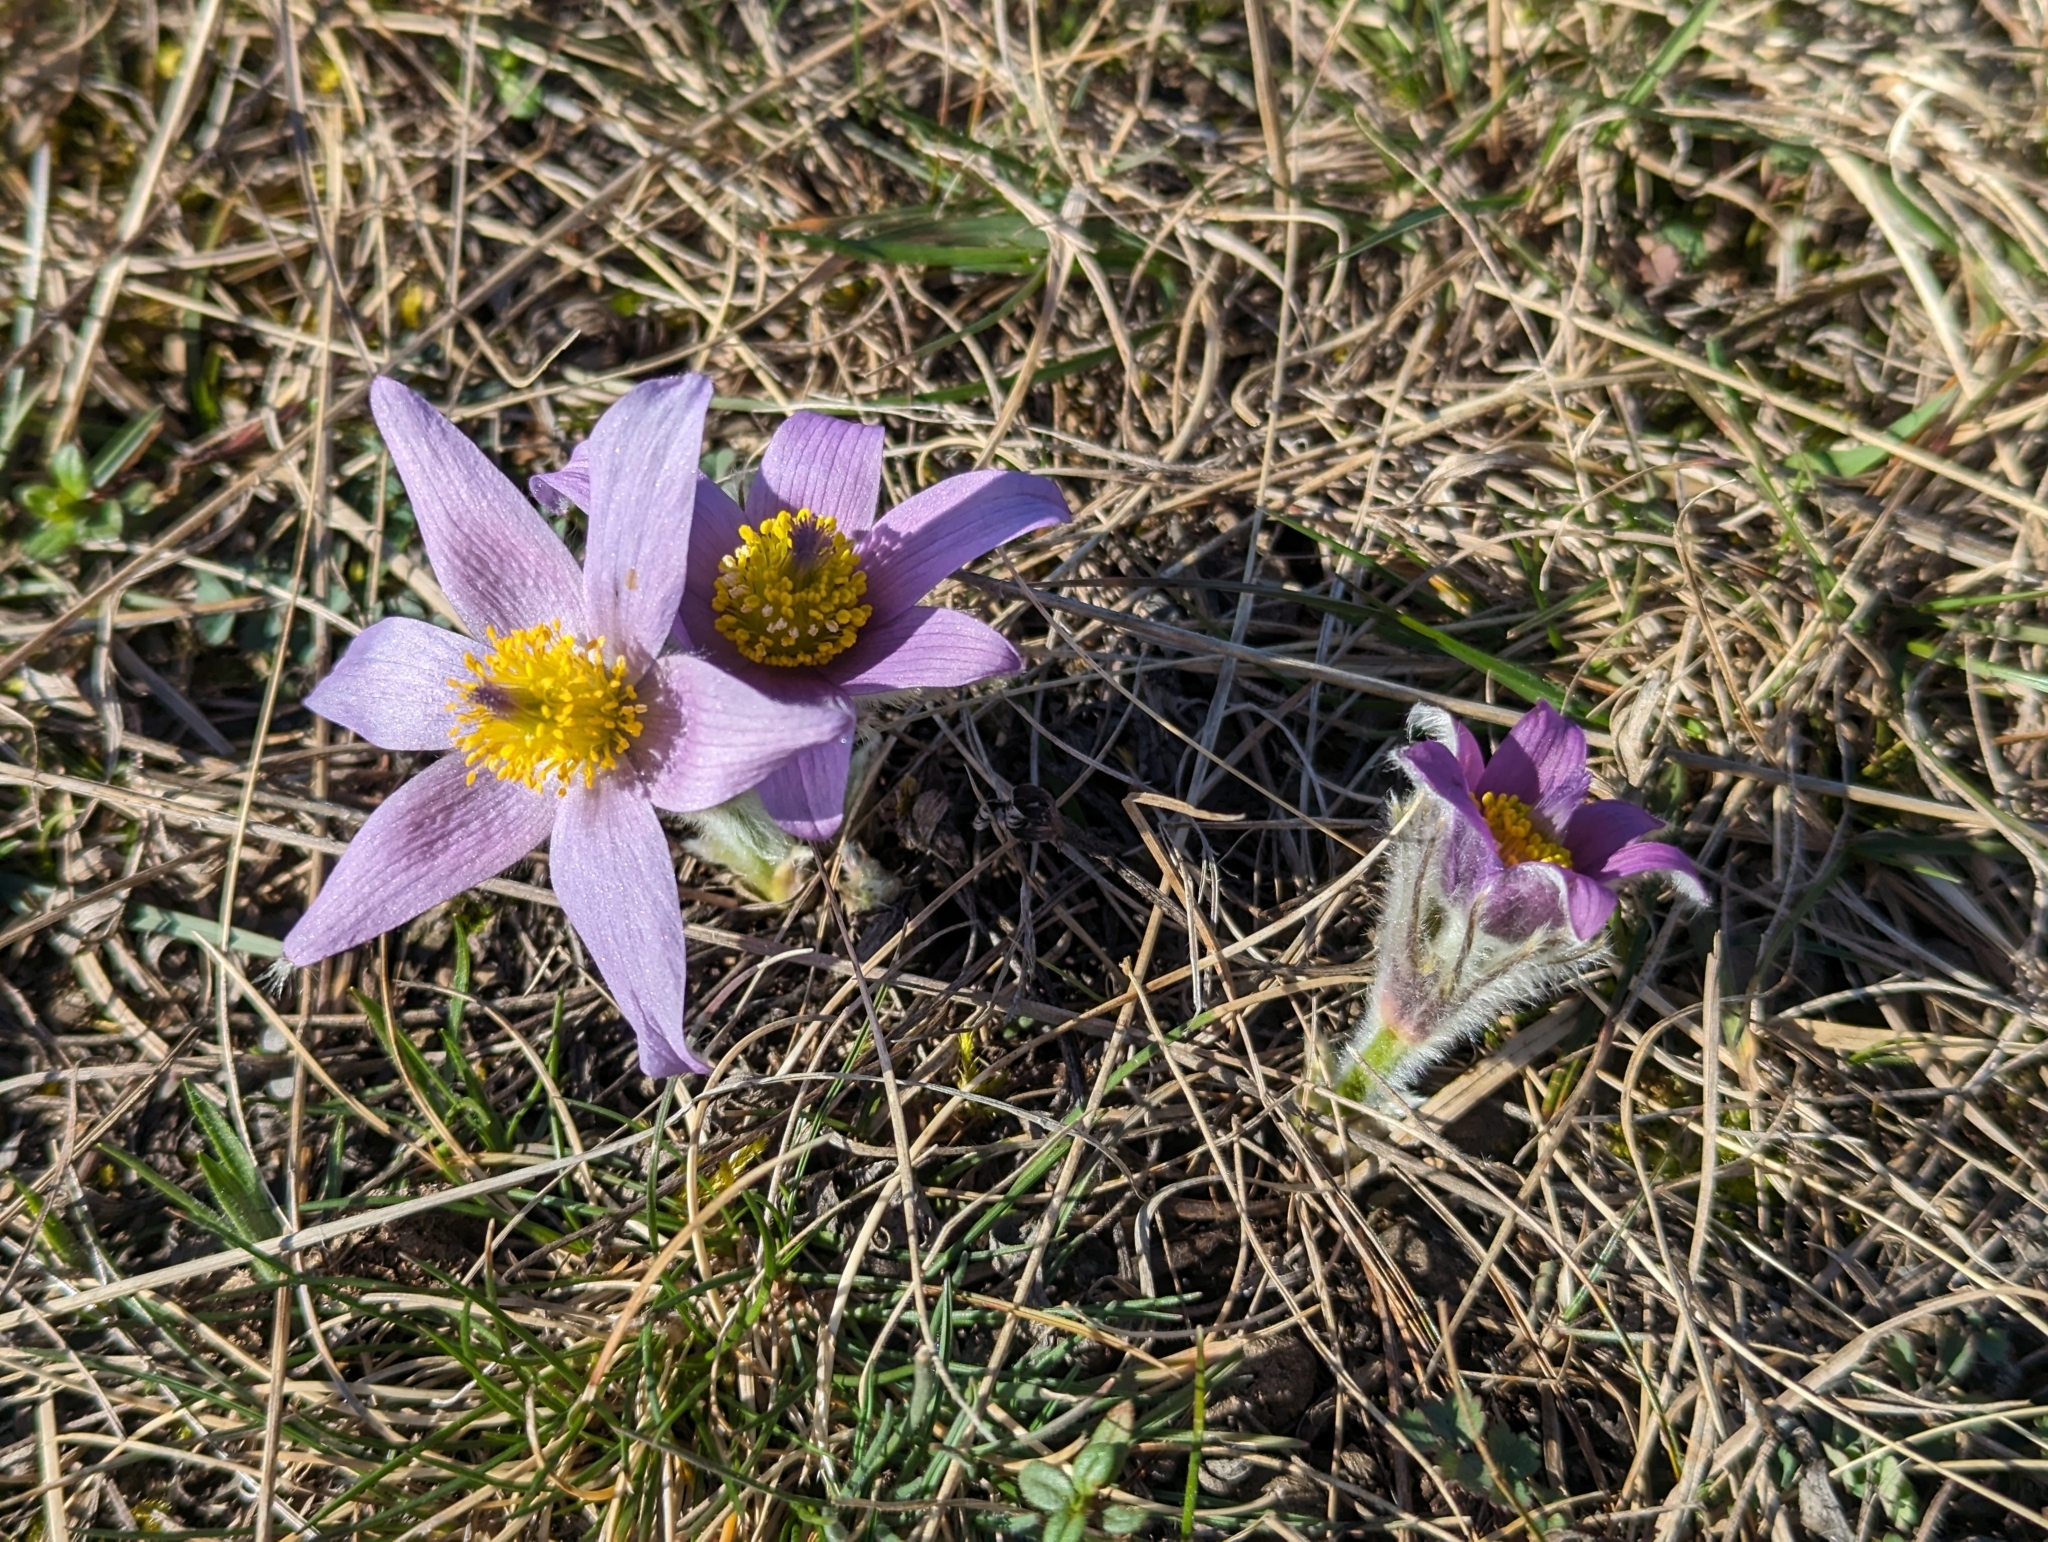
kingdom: Plantae
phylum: Tracheophyta
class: Magnoliopsida
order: Ranunculales
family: Ranunculaceae
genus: Pulsatilla
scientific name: Pulsatilla grandis
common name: Greater pasque flower
